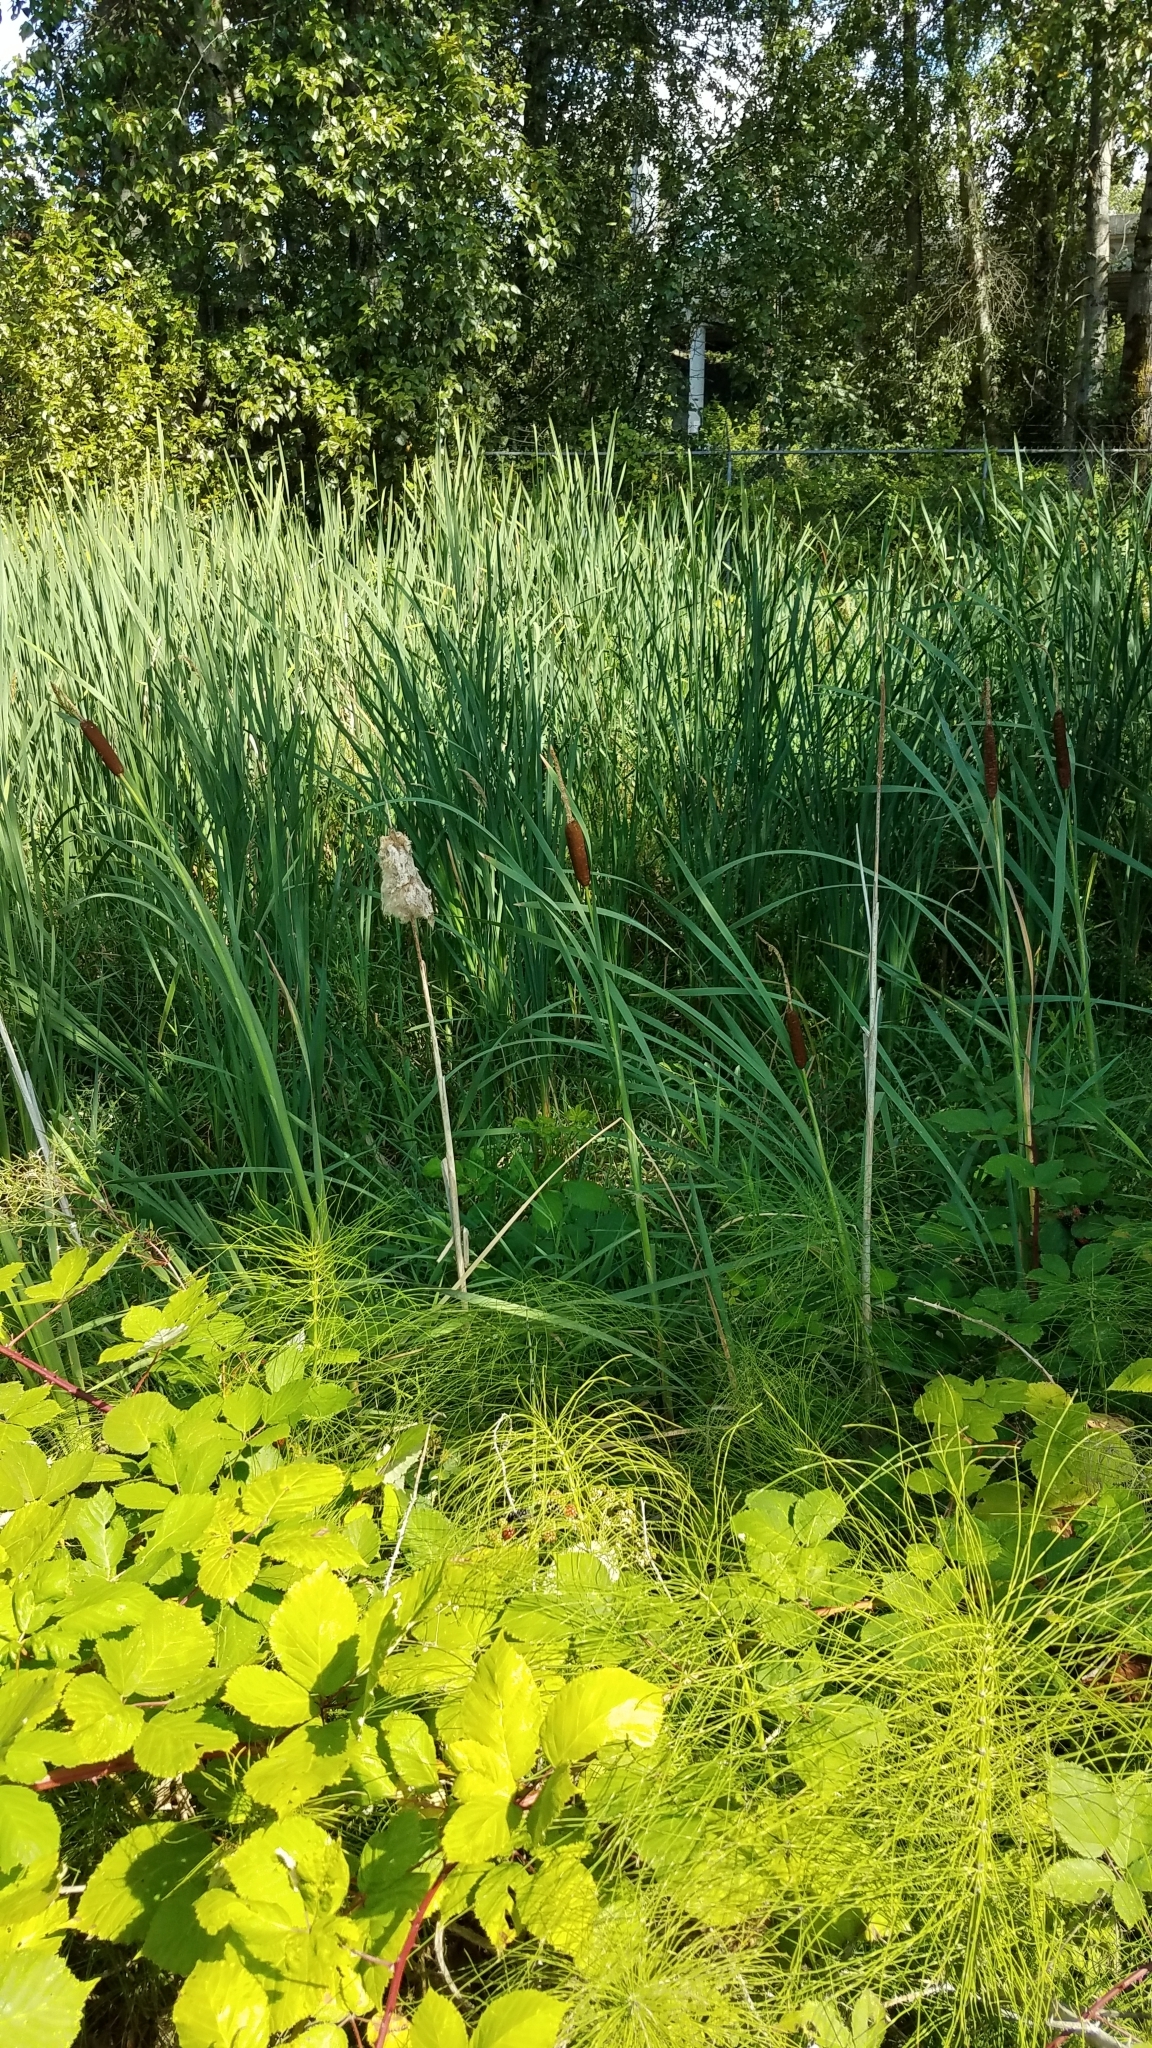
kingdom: Plantae
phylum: Tracheophyta
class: Liliopsida
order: Poales
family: Typhaceae
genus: Typha
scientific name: Typha latifolia
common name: Broadleaf cattail
